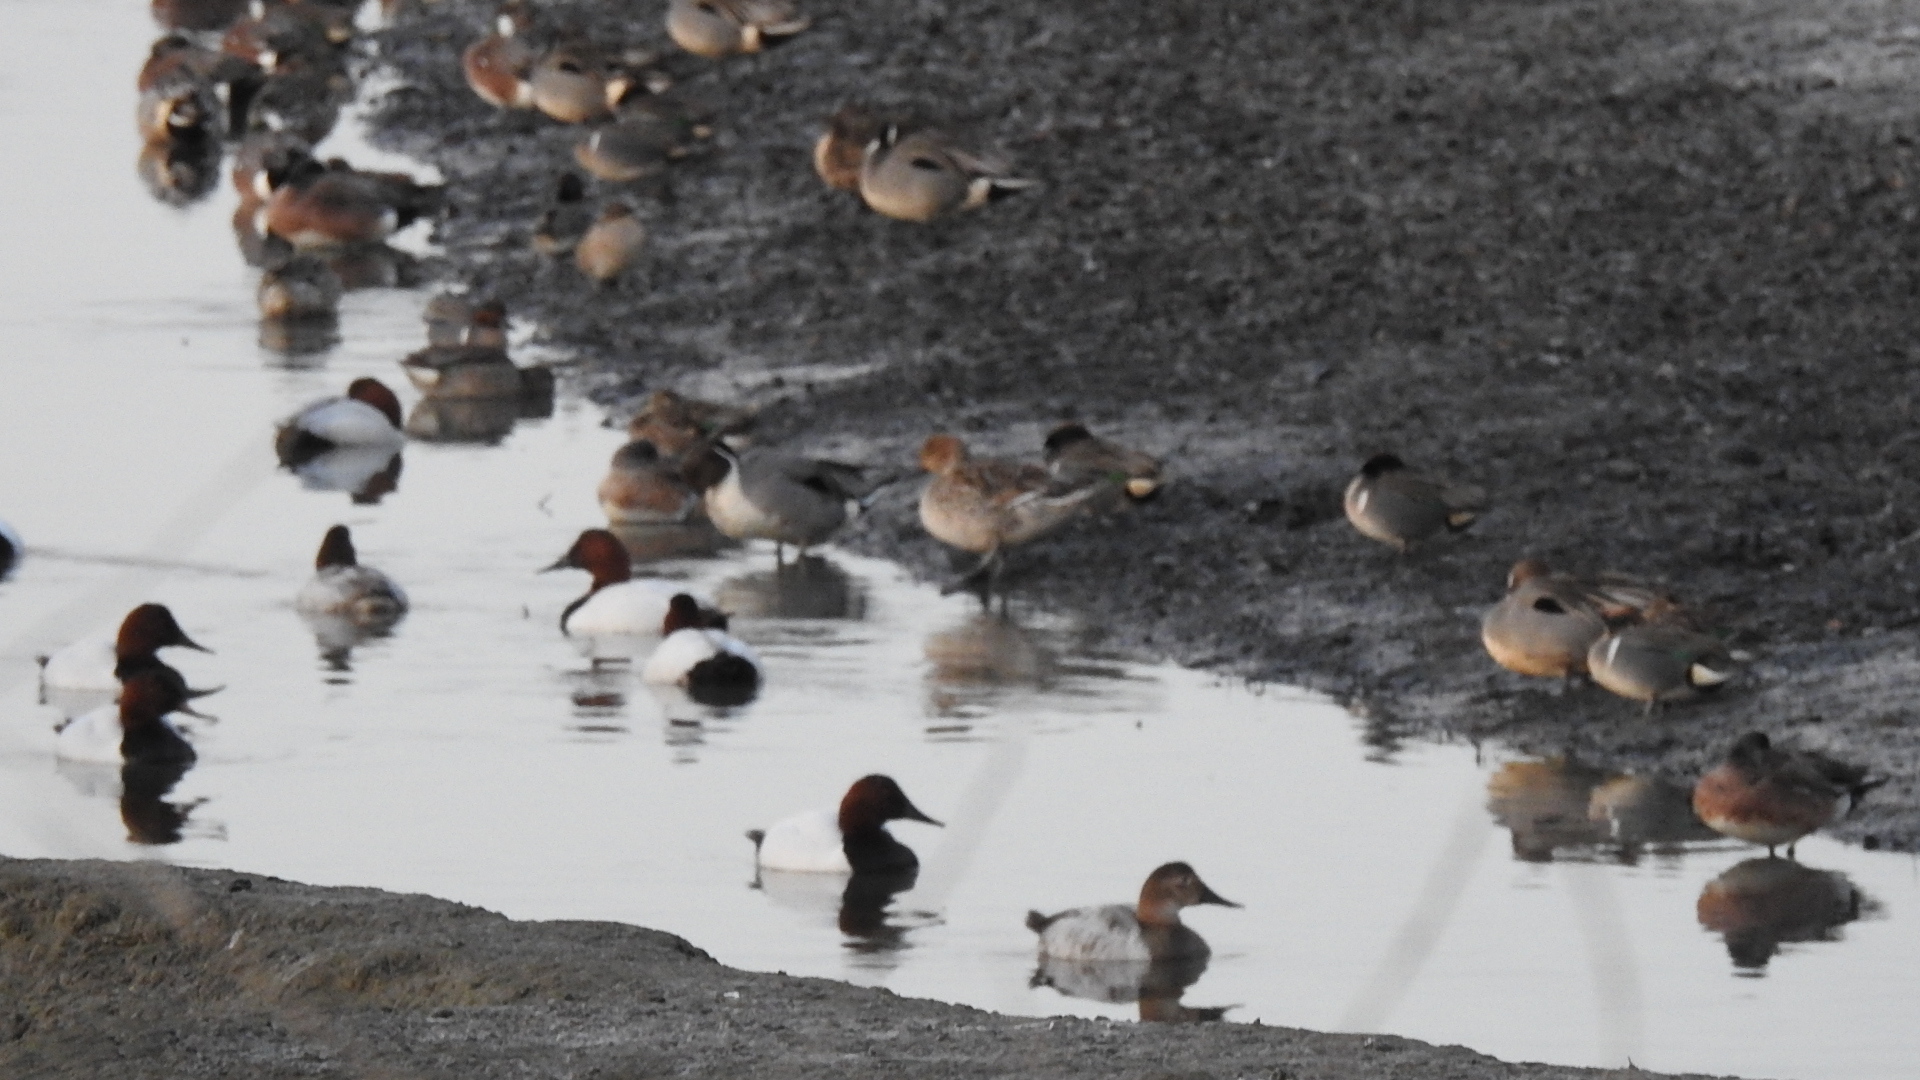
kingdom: Animalia
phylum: Chordata
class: Aves
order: Anseriformes
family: Anatidae
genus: Aythya
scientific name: Aythya valisineria
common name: Canvasback
